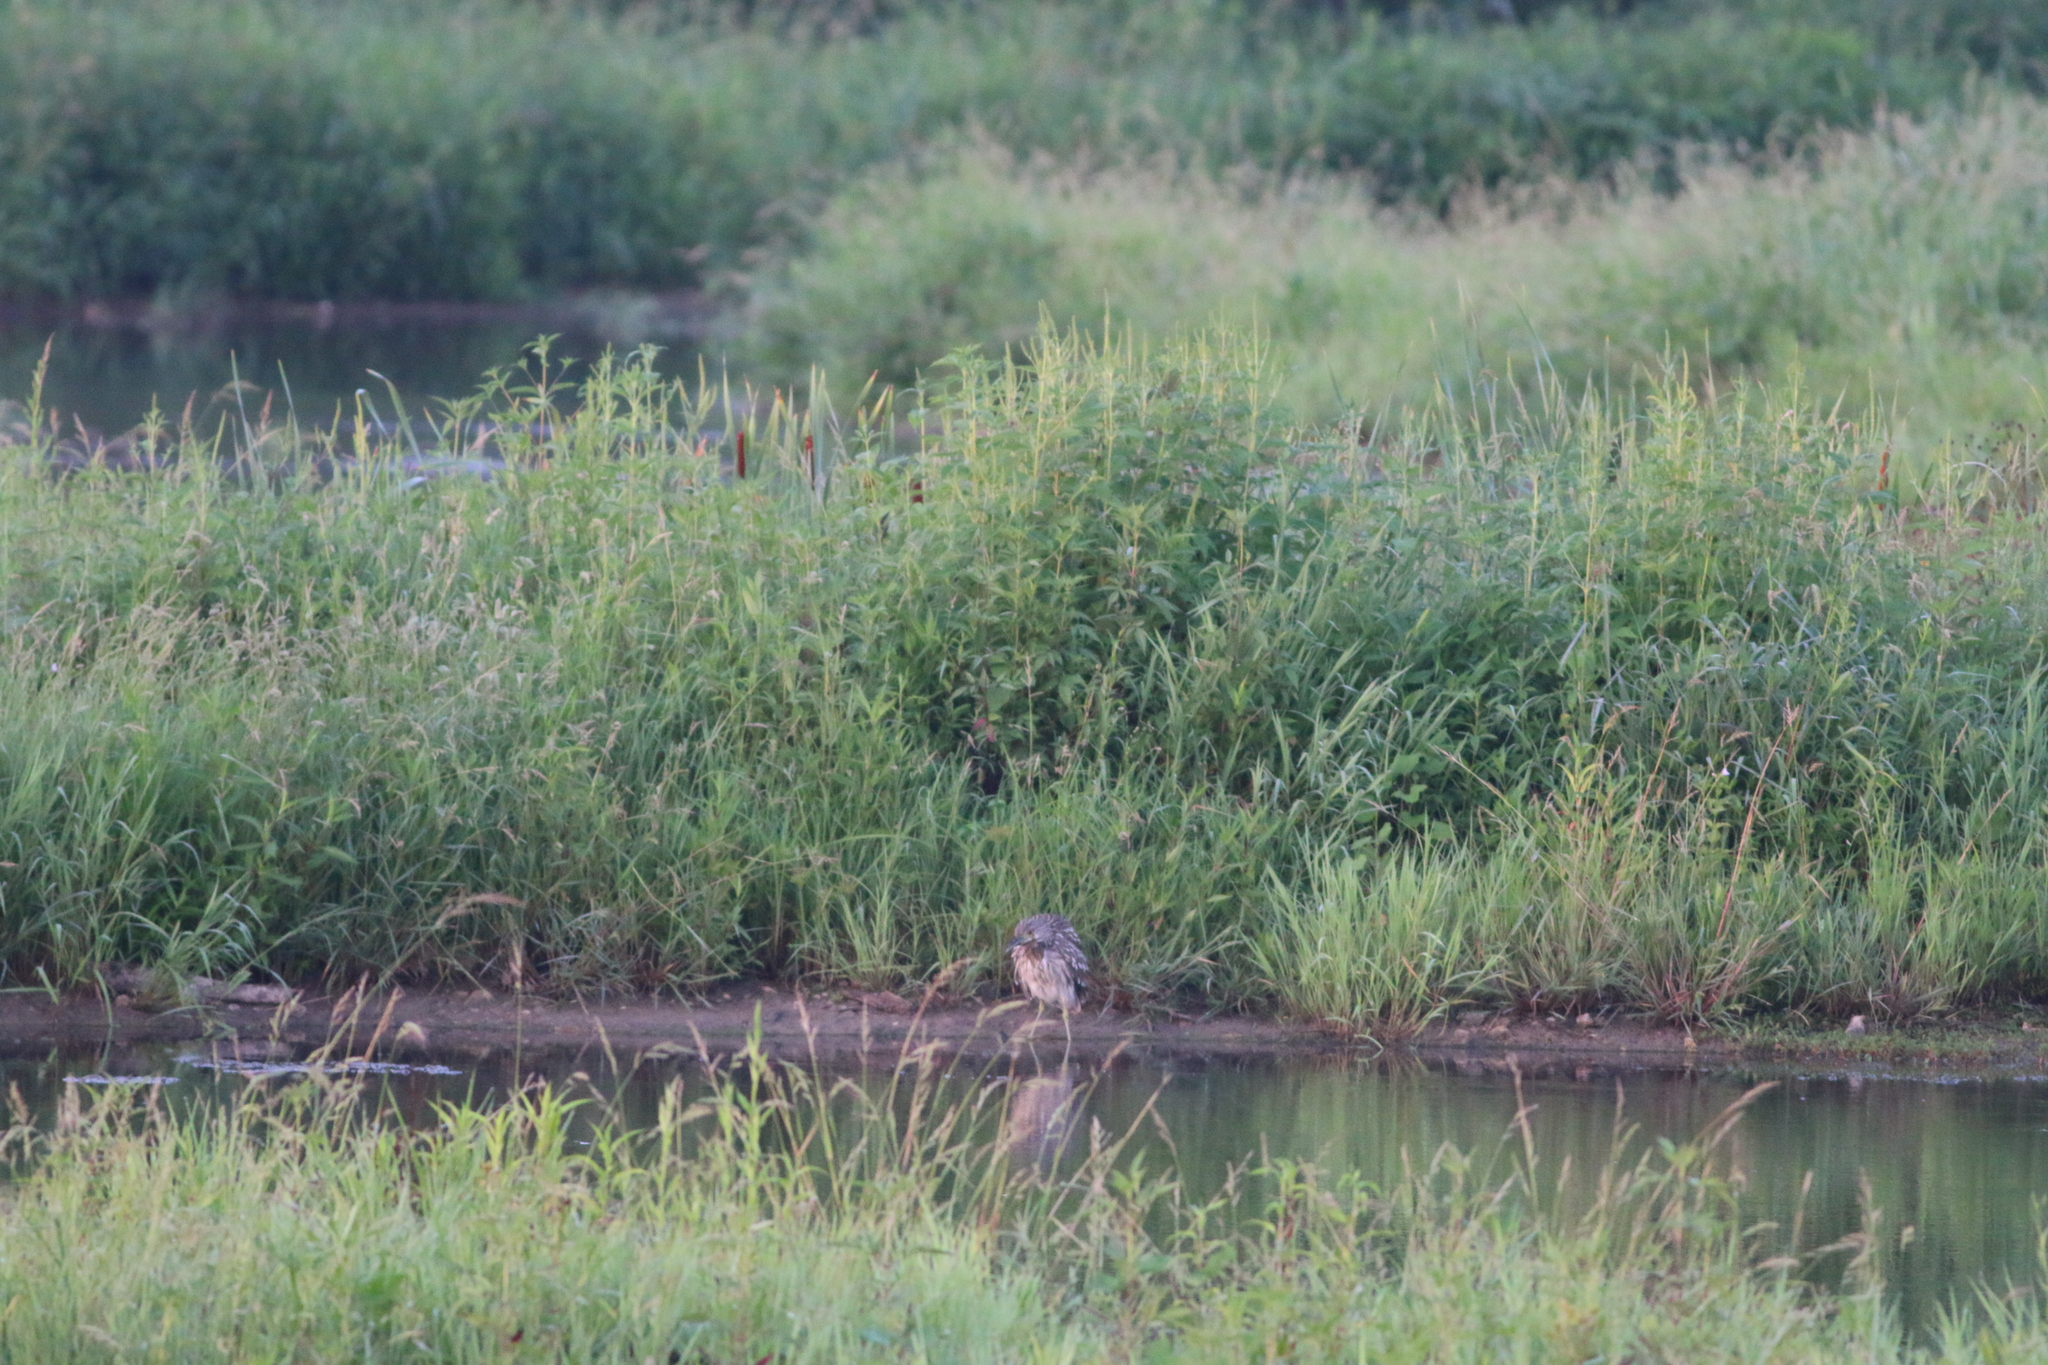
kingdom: Animalia
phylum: Chordata
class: Aves
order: Pelecaniformes
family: Ardeidae
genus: Nycticorax
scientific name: Nycticorax nycticorax
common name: Black-crowned night heron
